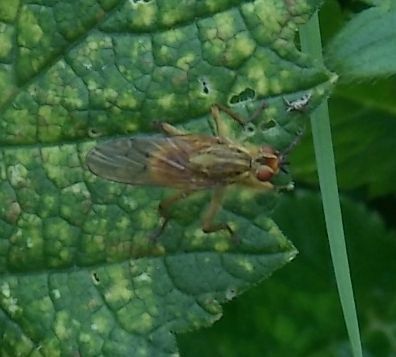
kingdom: Animalia
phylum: Arthropoda
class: Insecta
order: Diptera
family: Scathophagidae
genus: Scathophaga
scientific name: Scathophaga stercoraria
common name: Yellow dung fly
